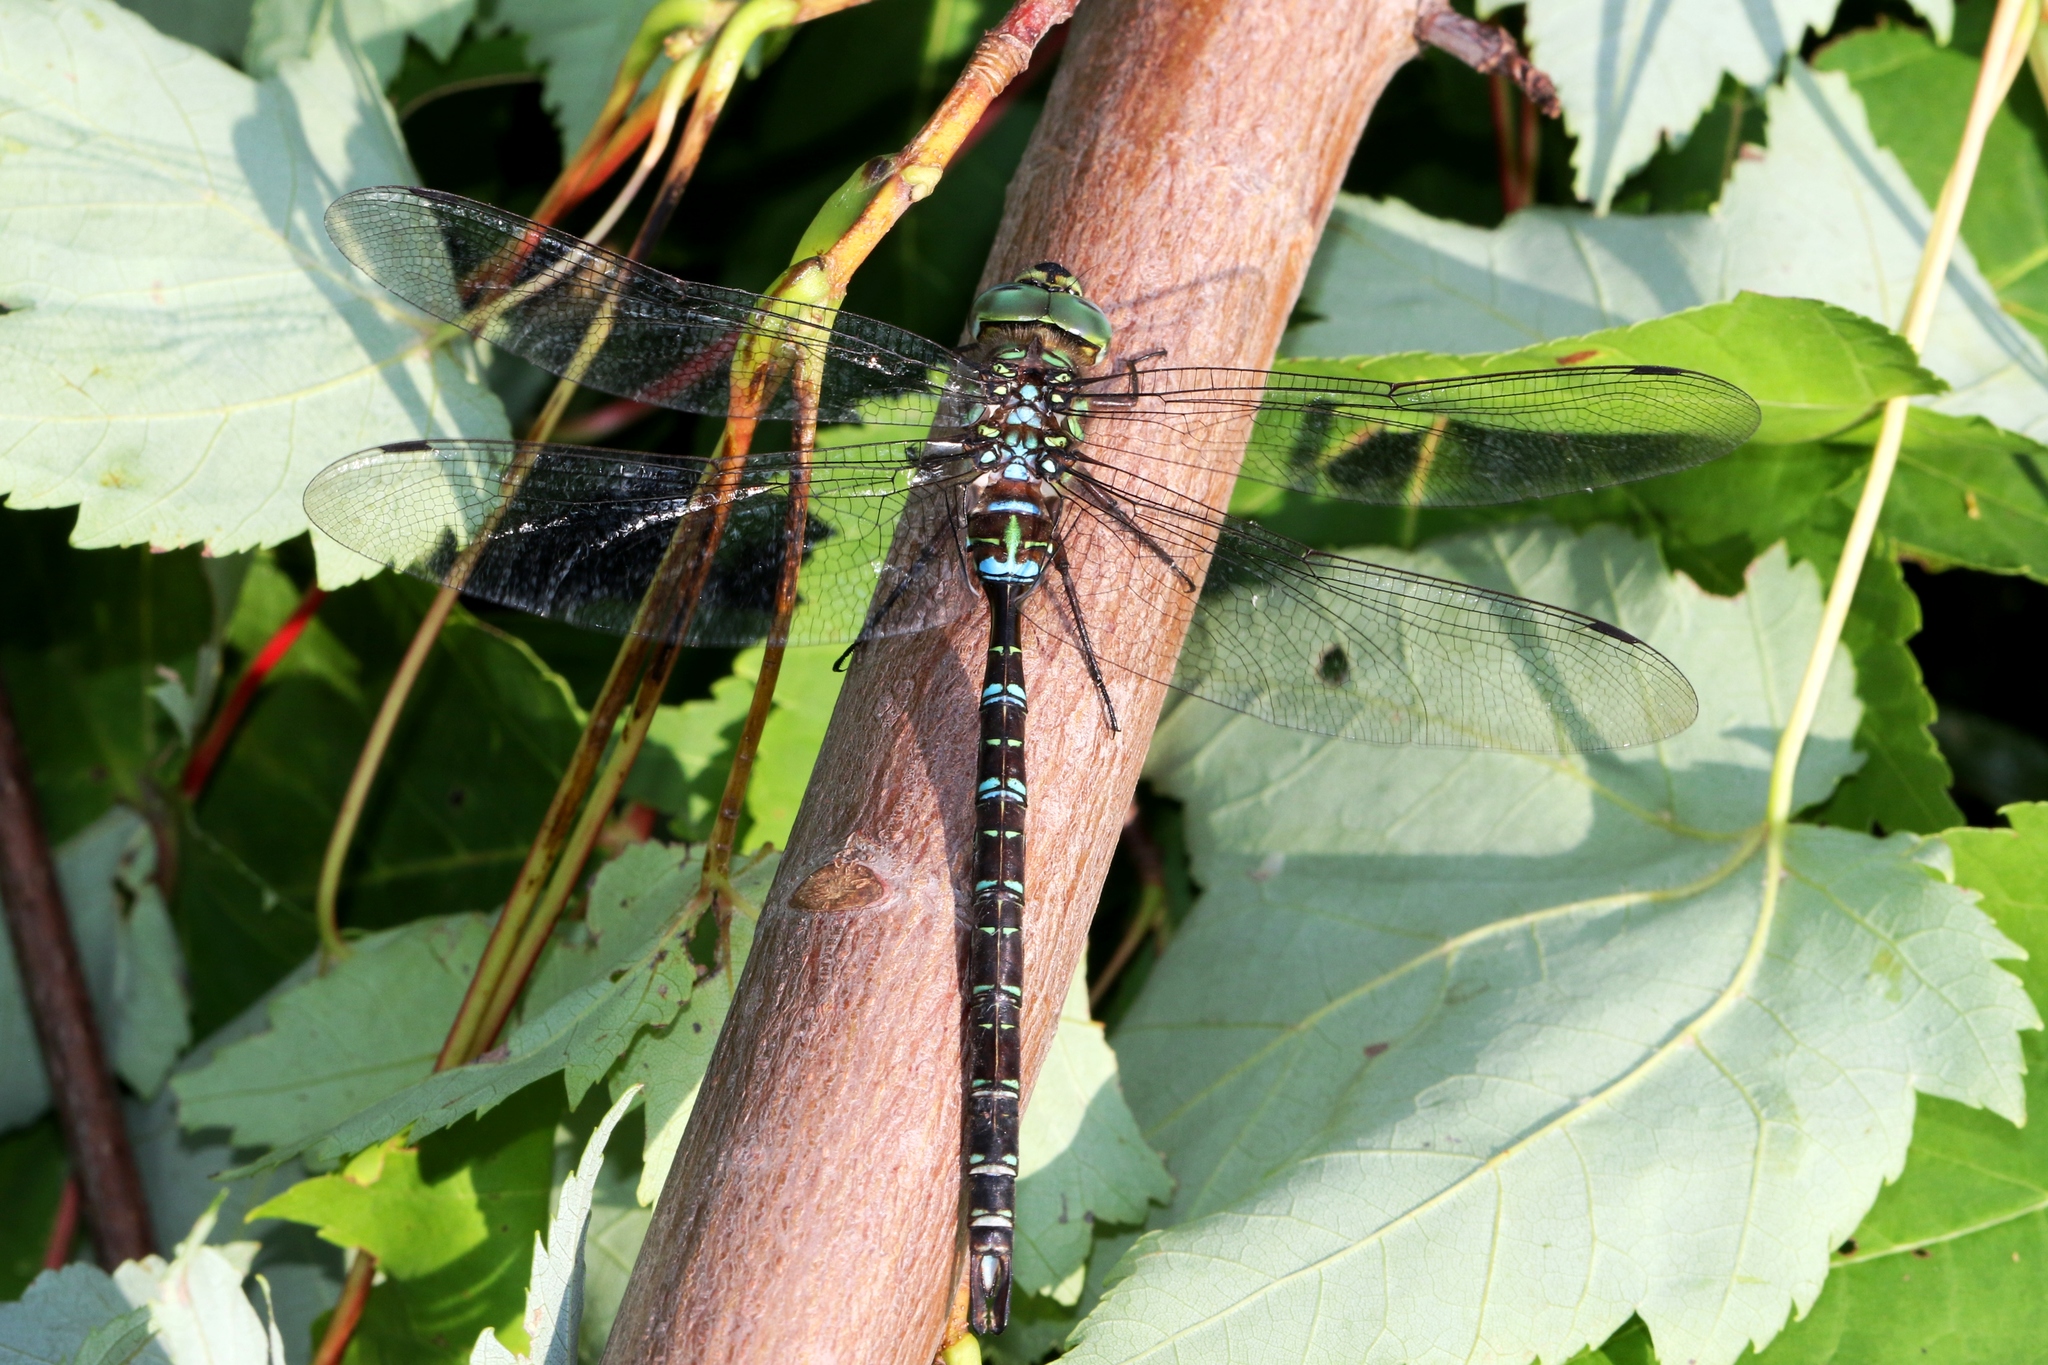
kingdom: Animalia
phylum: Arthropoda
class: Insecta
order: Odonata
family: Aeshnidae
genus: Aeshna
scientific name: Aeshna umbrosa
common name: Shadow darner
